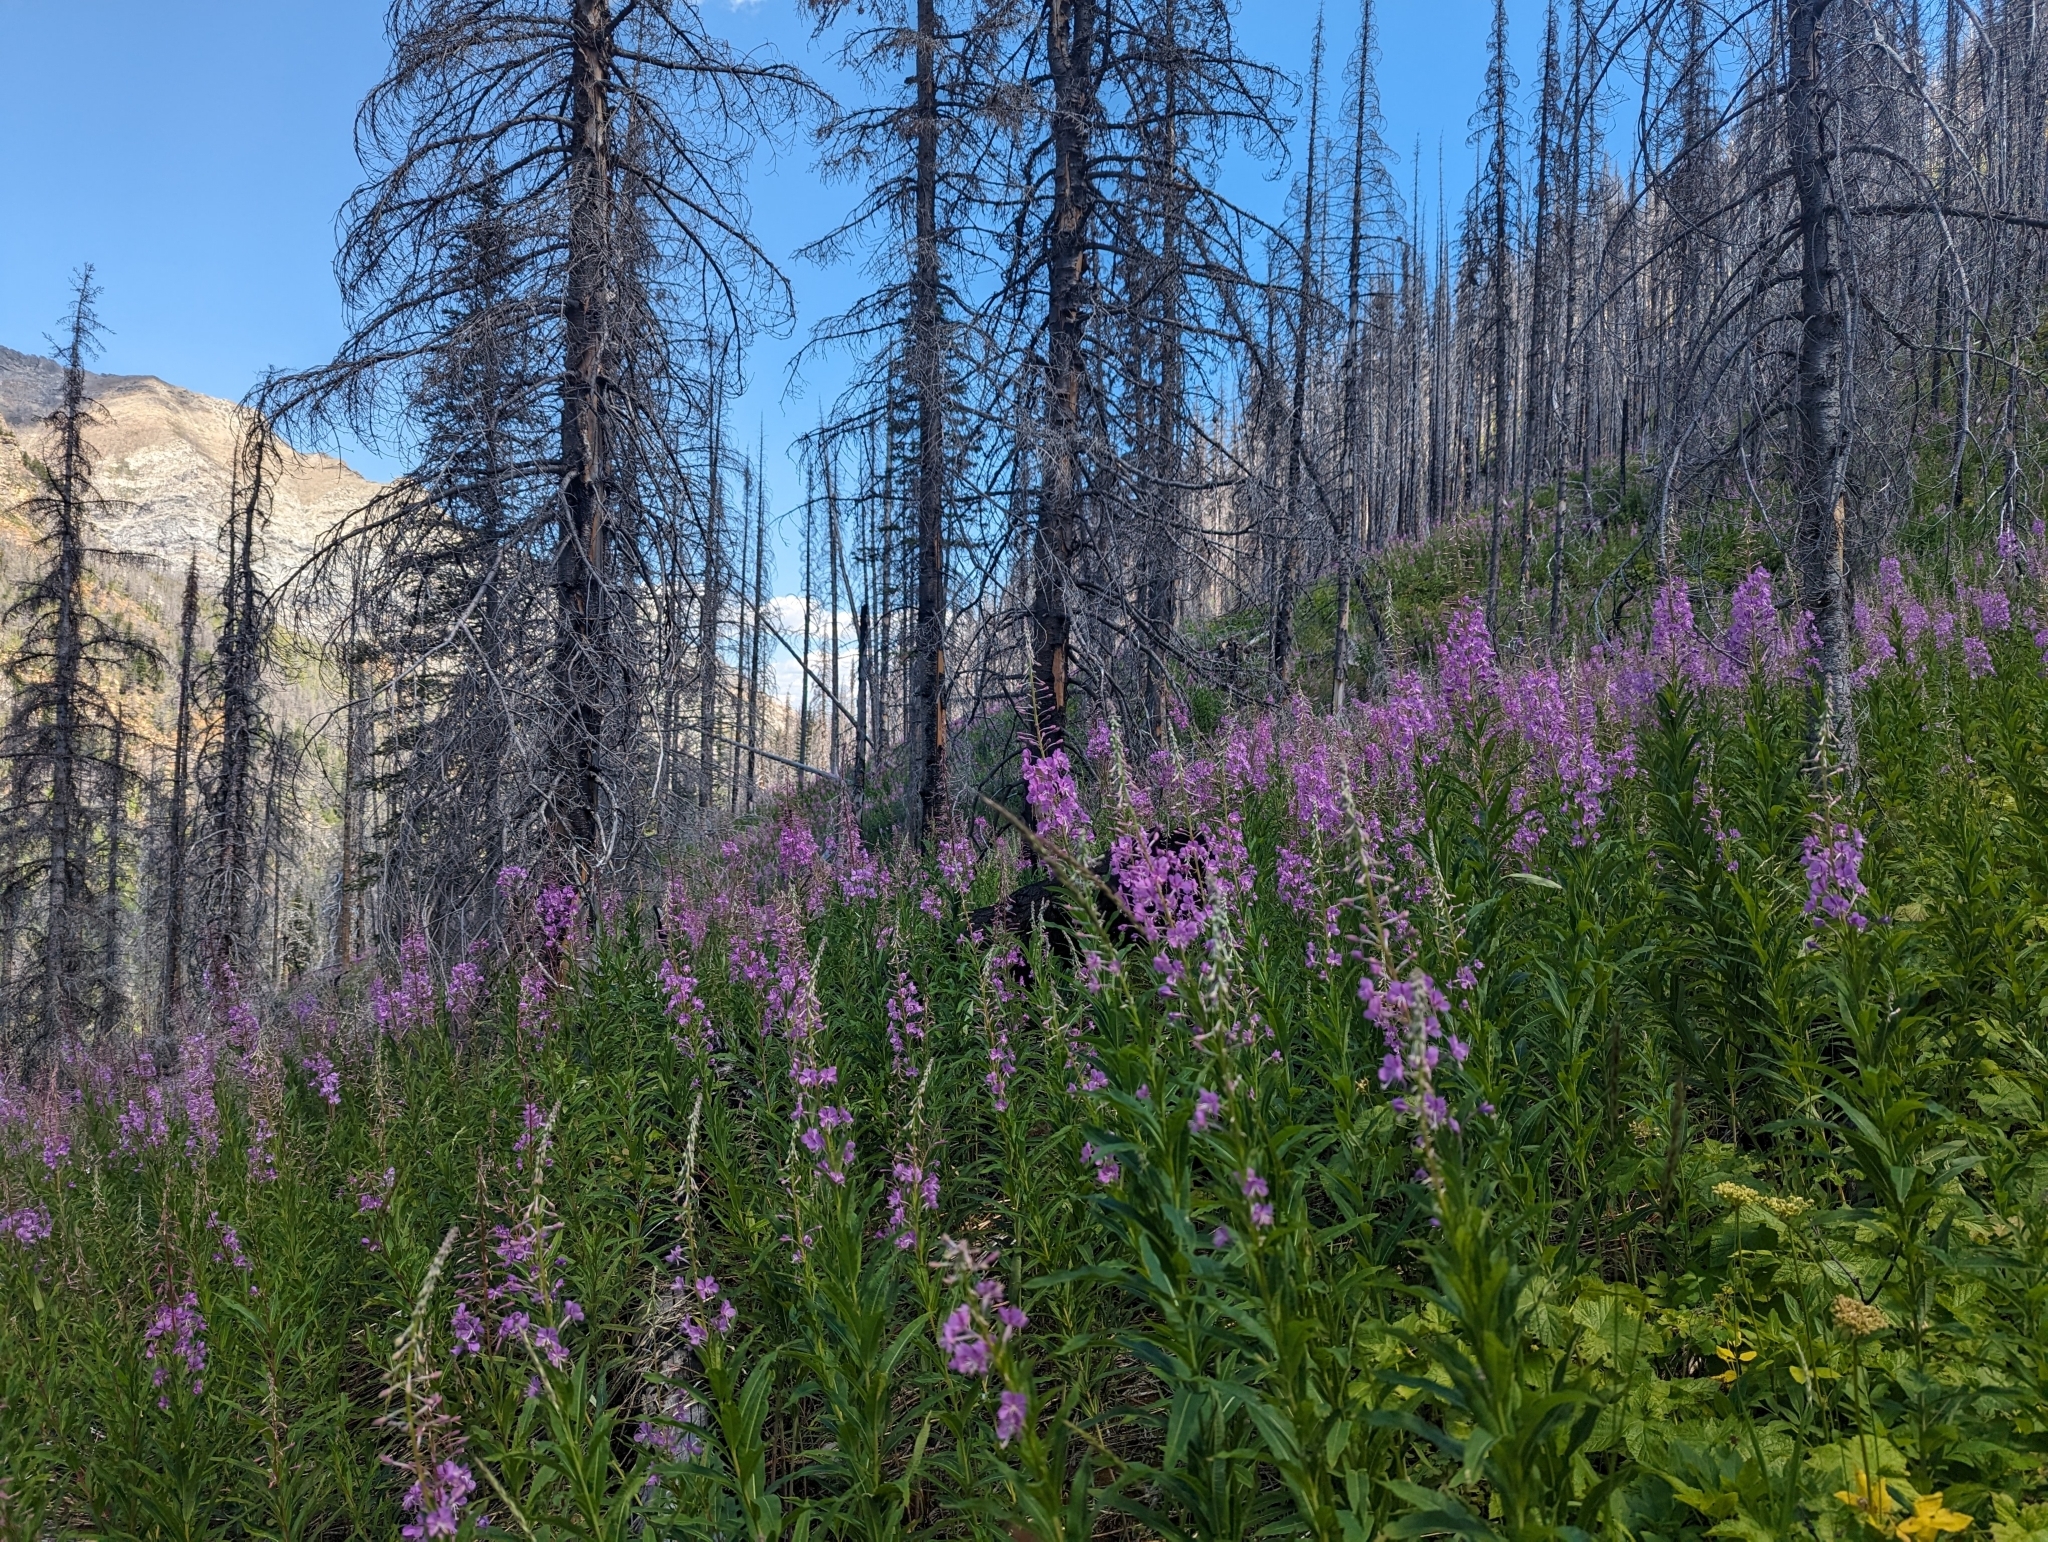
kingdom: Plantae
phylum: Tracheophyta
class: Magnoliopsida
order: Myrtales
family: Onagraceae
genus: Chamaenerion
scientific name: Chamaenerion angustifolium
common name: Fireweed
